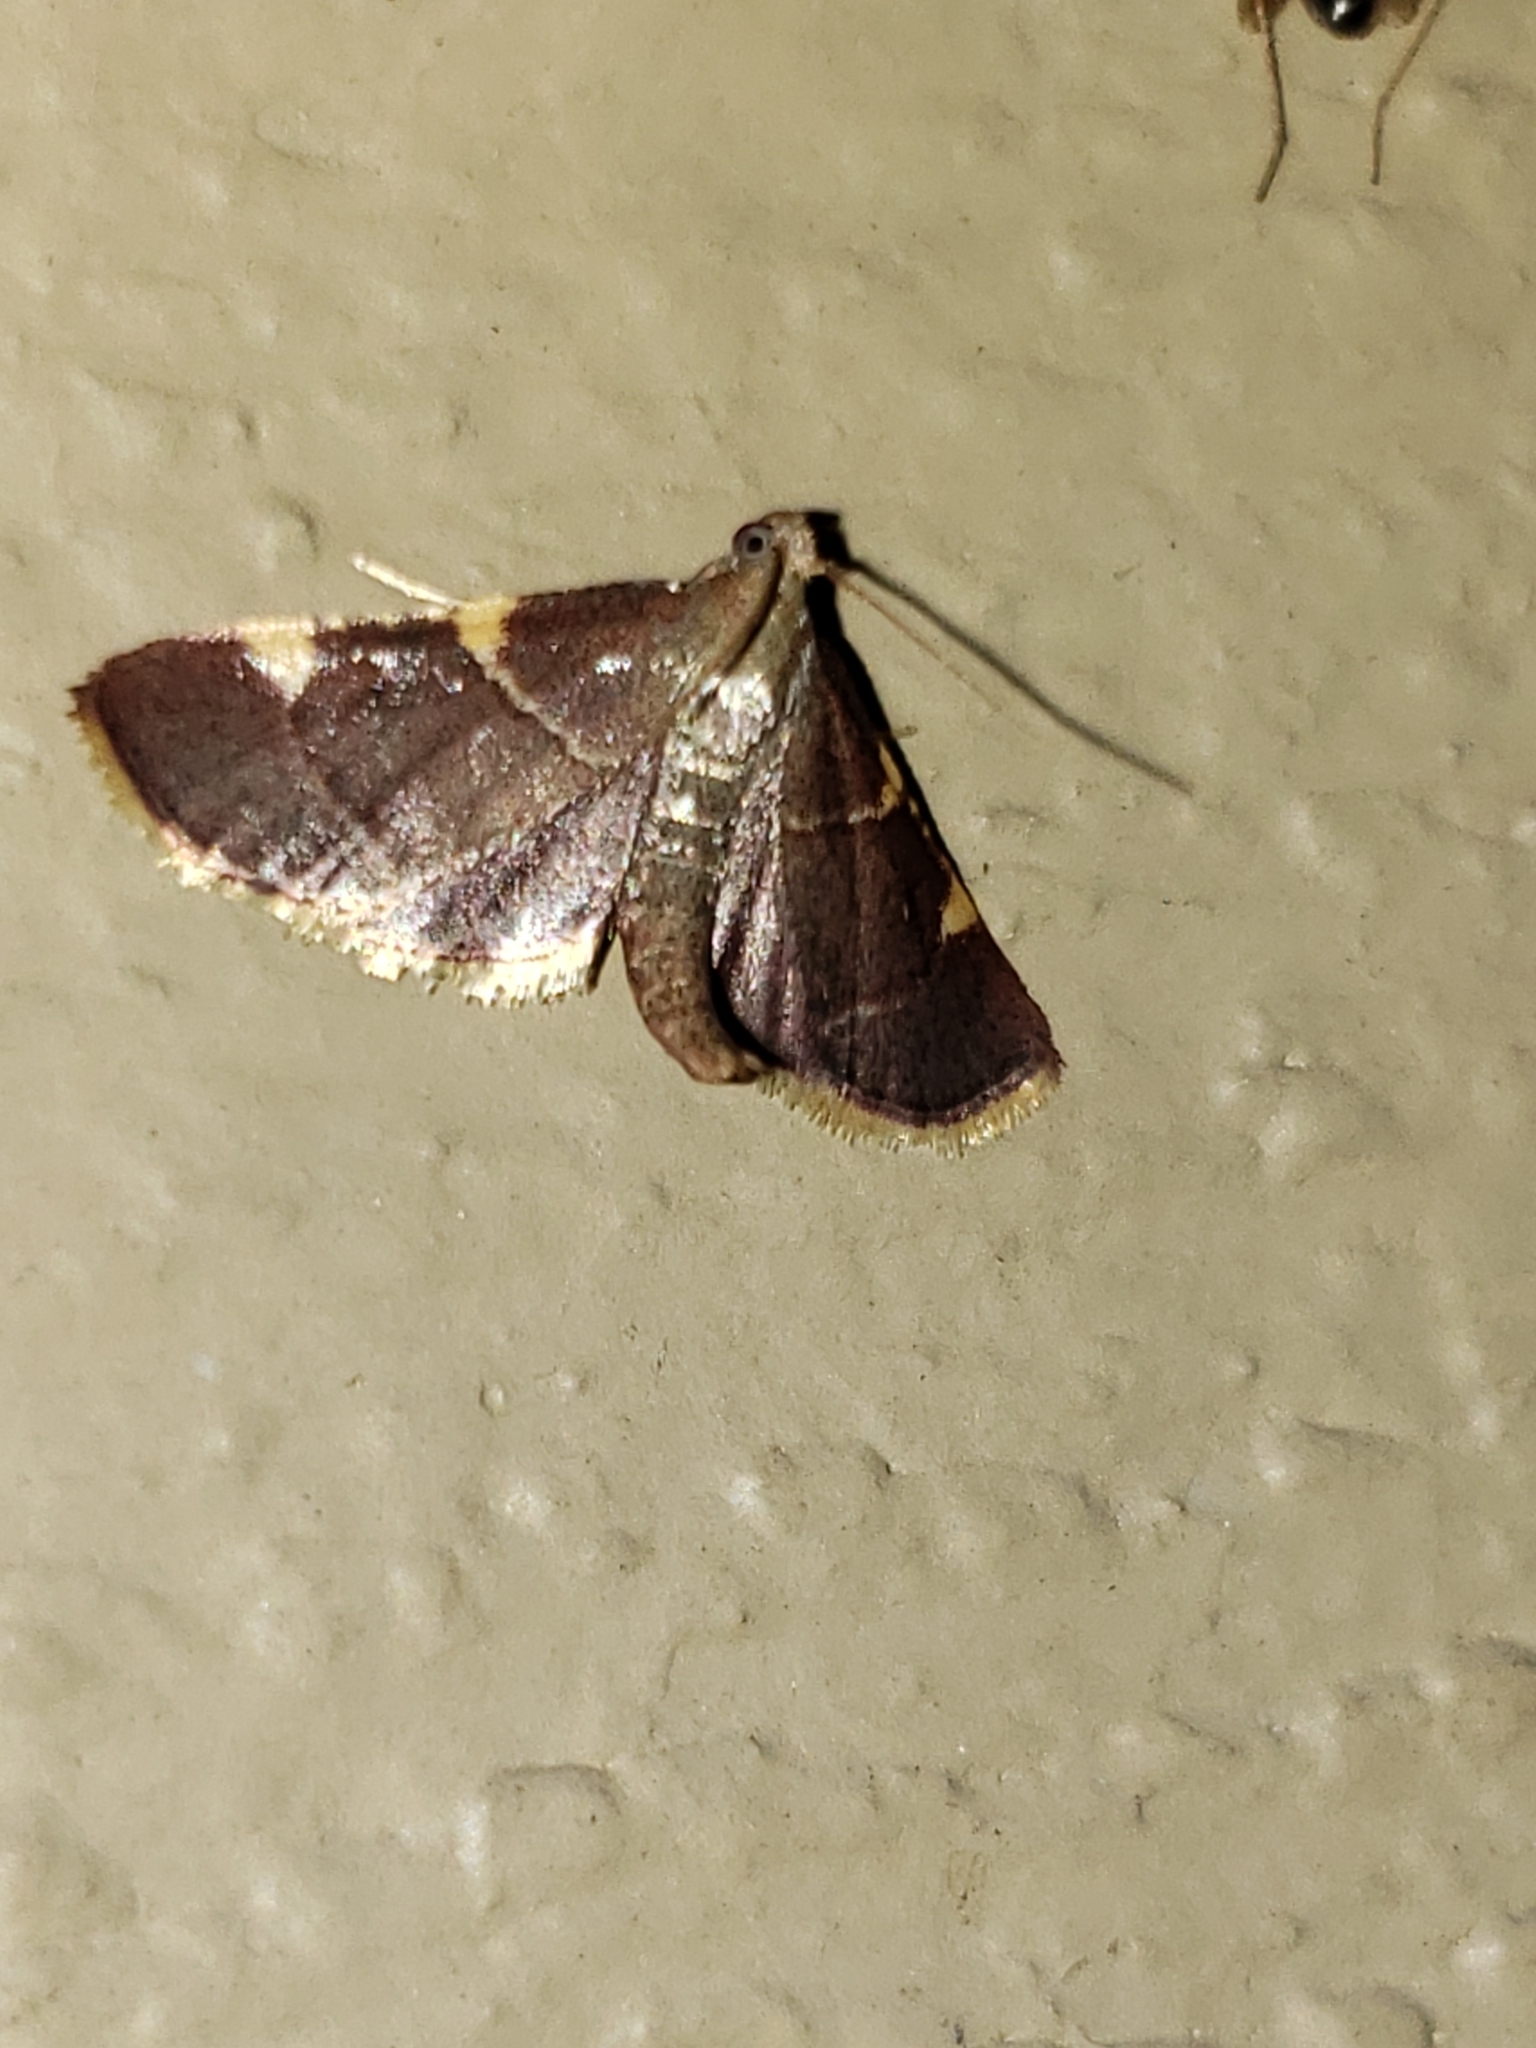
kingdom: Animalia
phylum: Arthropoda
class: Insecta
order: Lepidoptera
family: Pyralidae
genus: Hypsopygia
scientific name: Hypsopygia olinalis
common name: Yellow-fringed dolichomia moth
